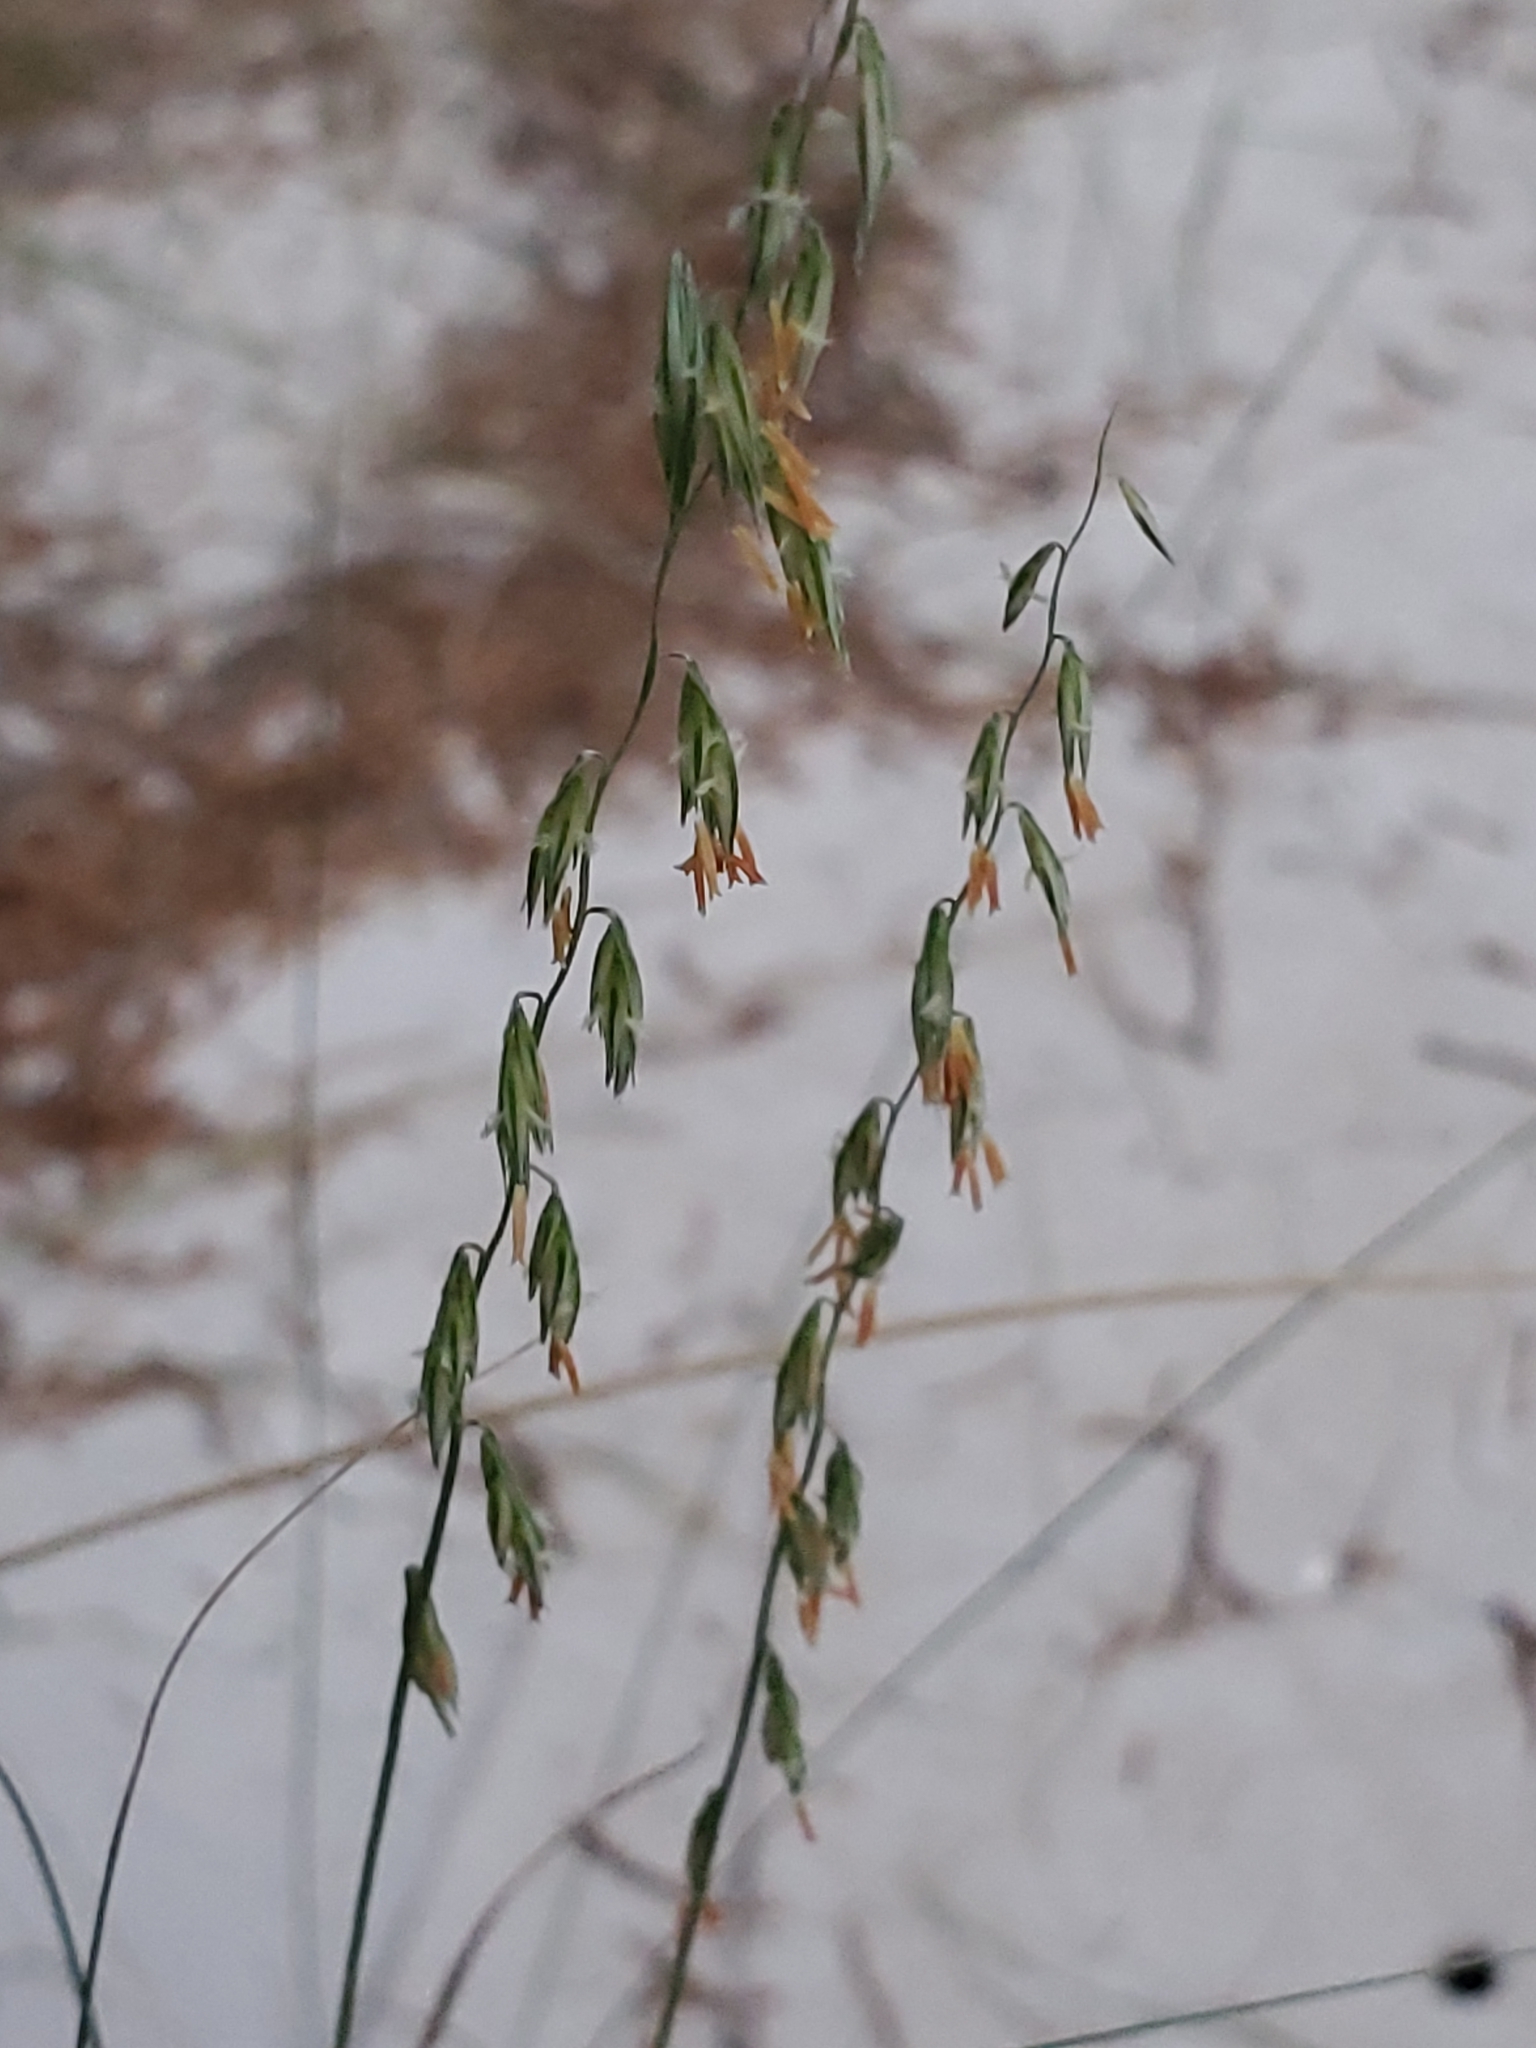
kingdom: Plantae
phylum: Tracheophyta
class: Liliopsida
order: Poales
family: Poaceae
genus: Bouteloua
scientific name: Bouteloua curtipendula
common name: Side-oats grama
